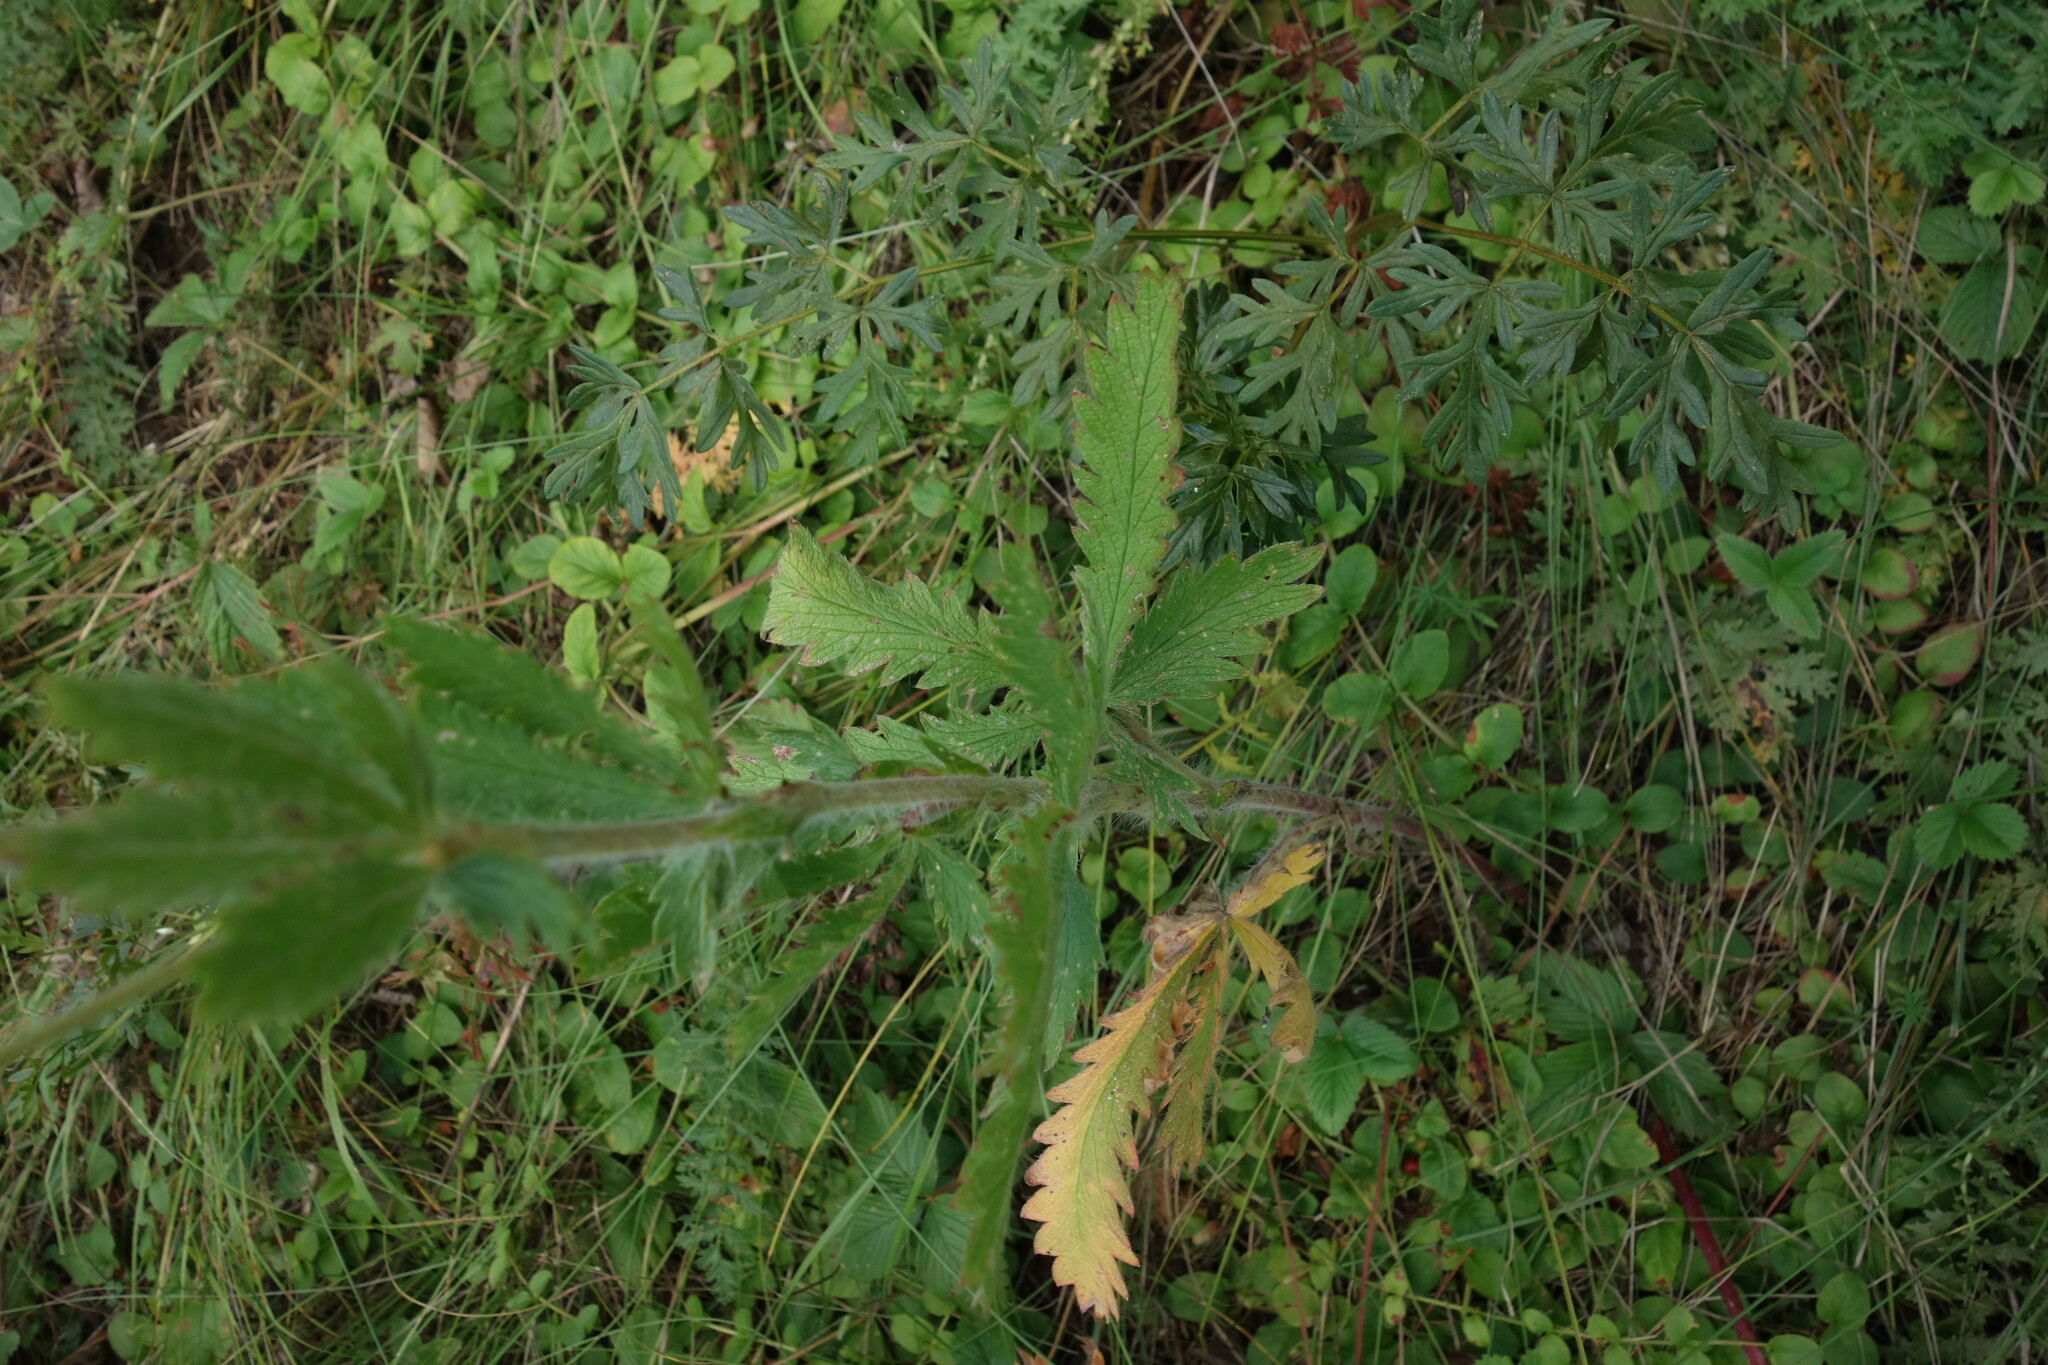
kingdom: Plantae
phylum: Tracheophyta
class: Magnoliopsida
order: Rosales
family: Rosaceae
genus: Potentilla
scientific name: Potentilla recta
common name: Sulphur cinquefoil
